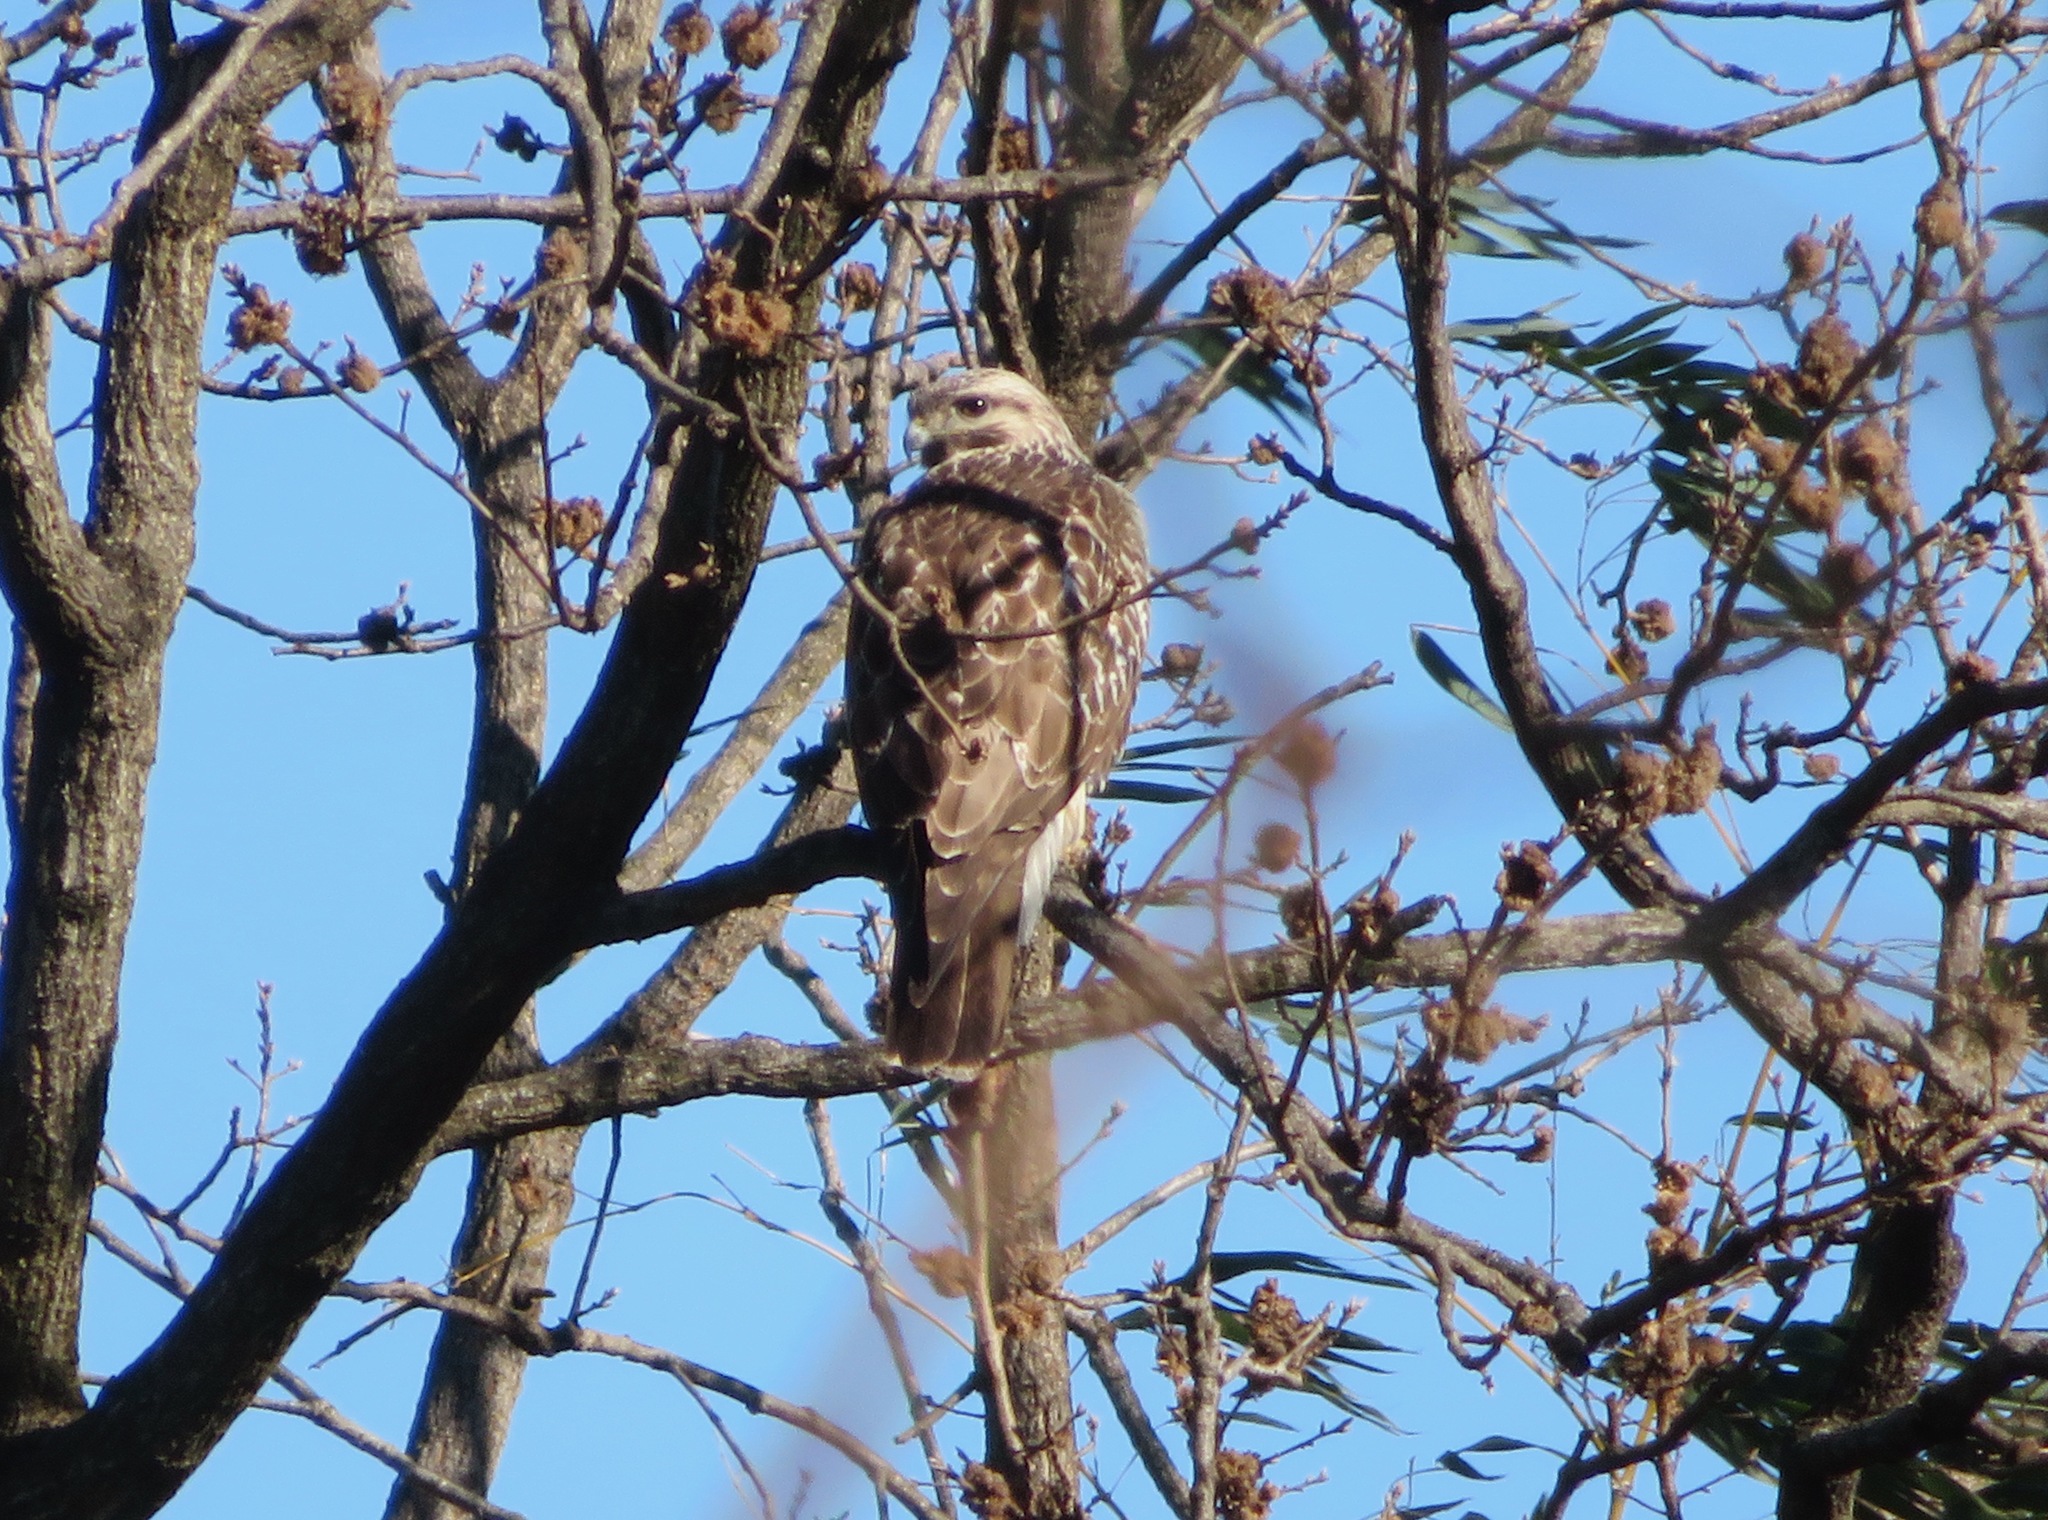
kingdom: Animalia
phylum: Chordata
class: Aves
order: Accipitriformes
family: Accipitridae
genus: Buteo
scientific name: Buteo japonicus
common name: Eastern buzzard
